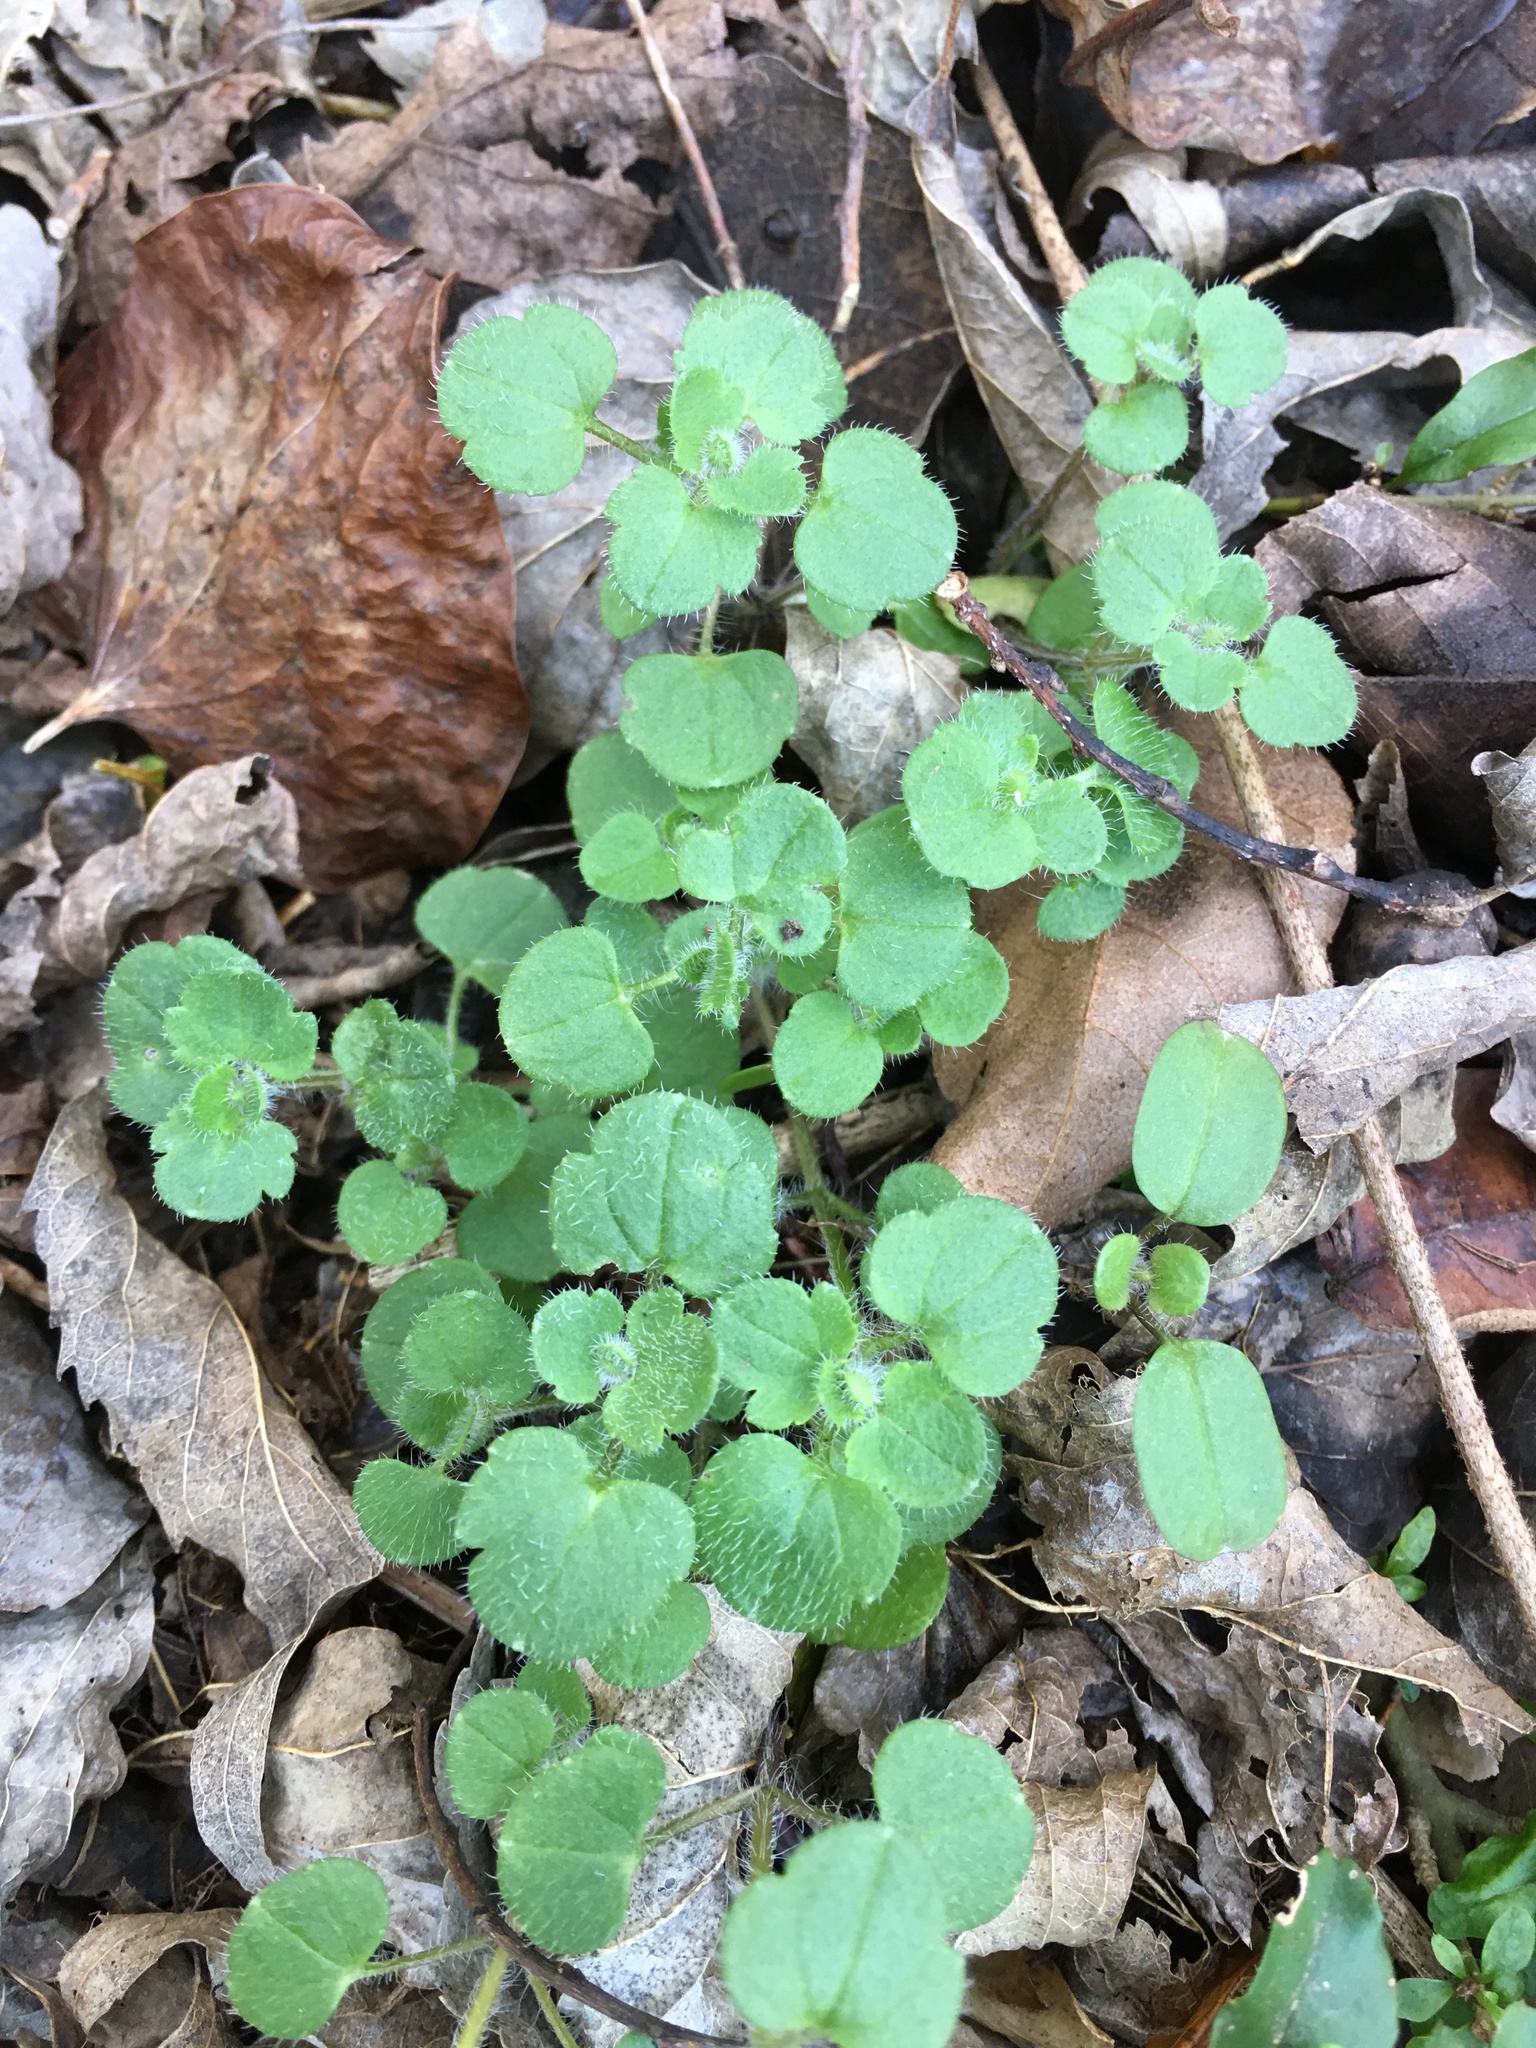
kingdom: Plantae
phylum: Tracheophyta
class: Magnoliopsida
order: Lamiales
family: Plantaginaceae
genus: Veronica
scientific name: Veronica hederifolia
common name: Ivy-leaved speedwell
